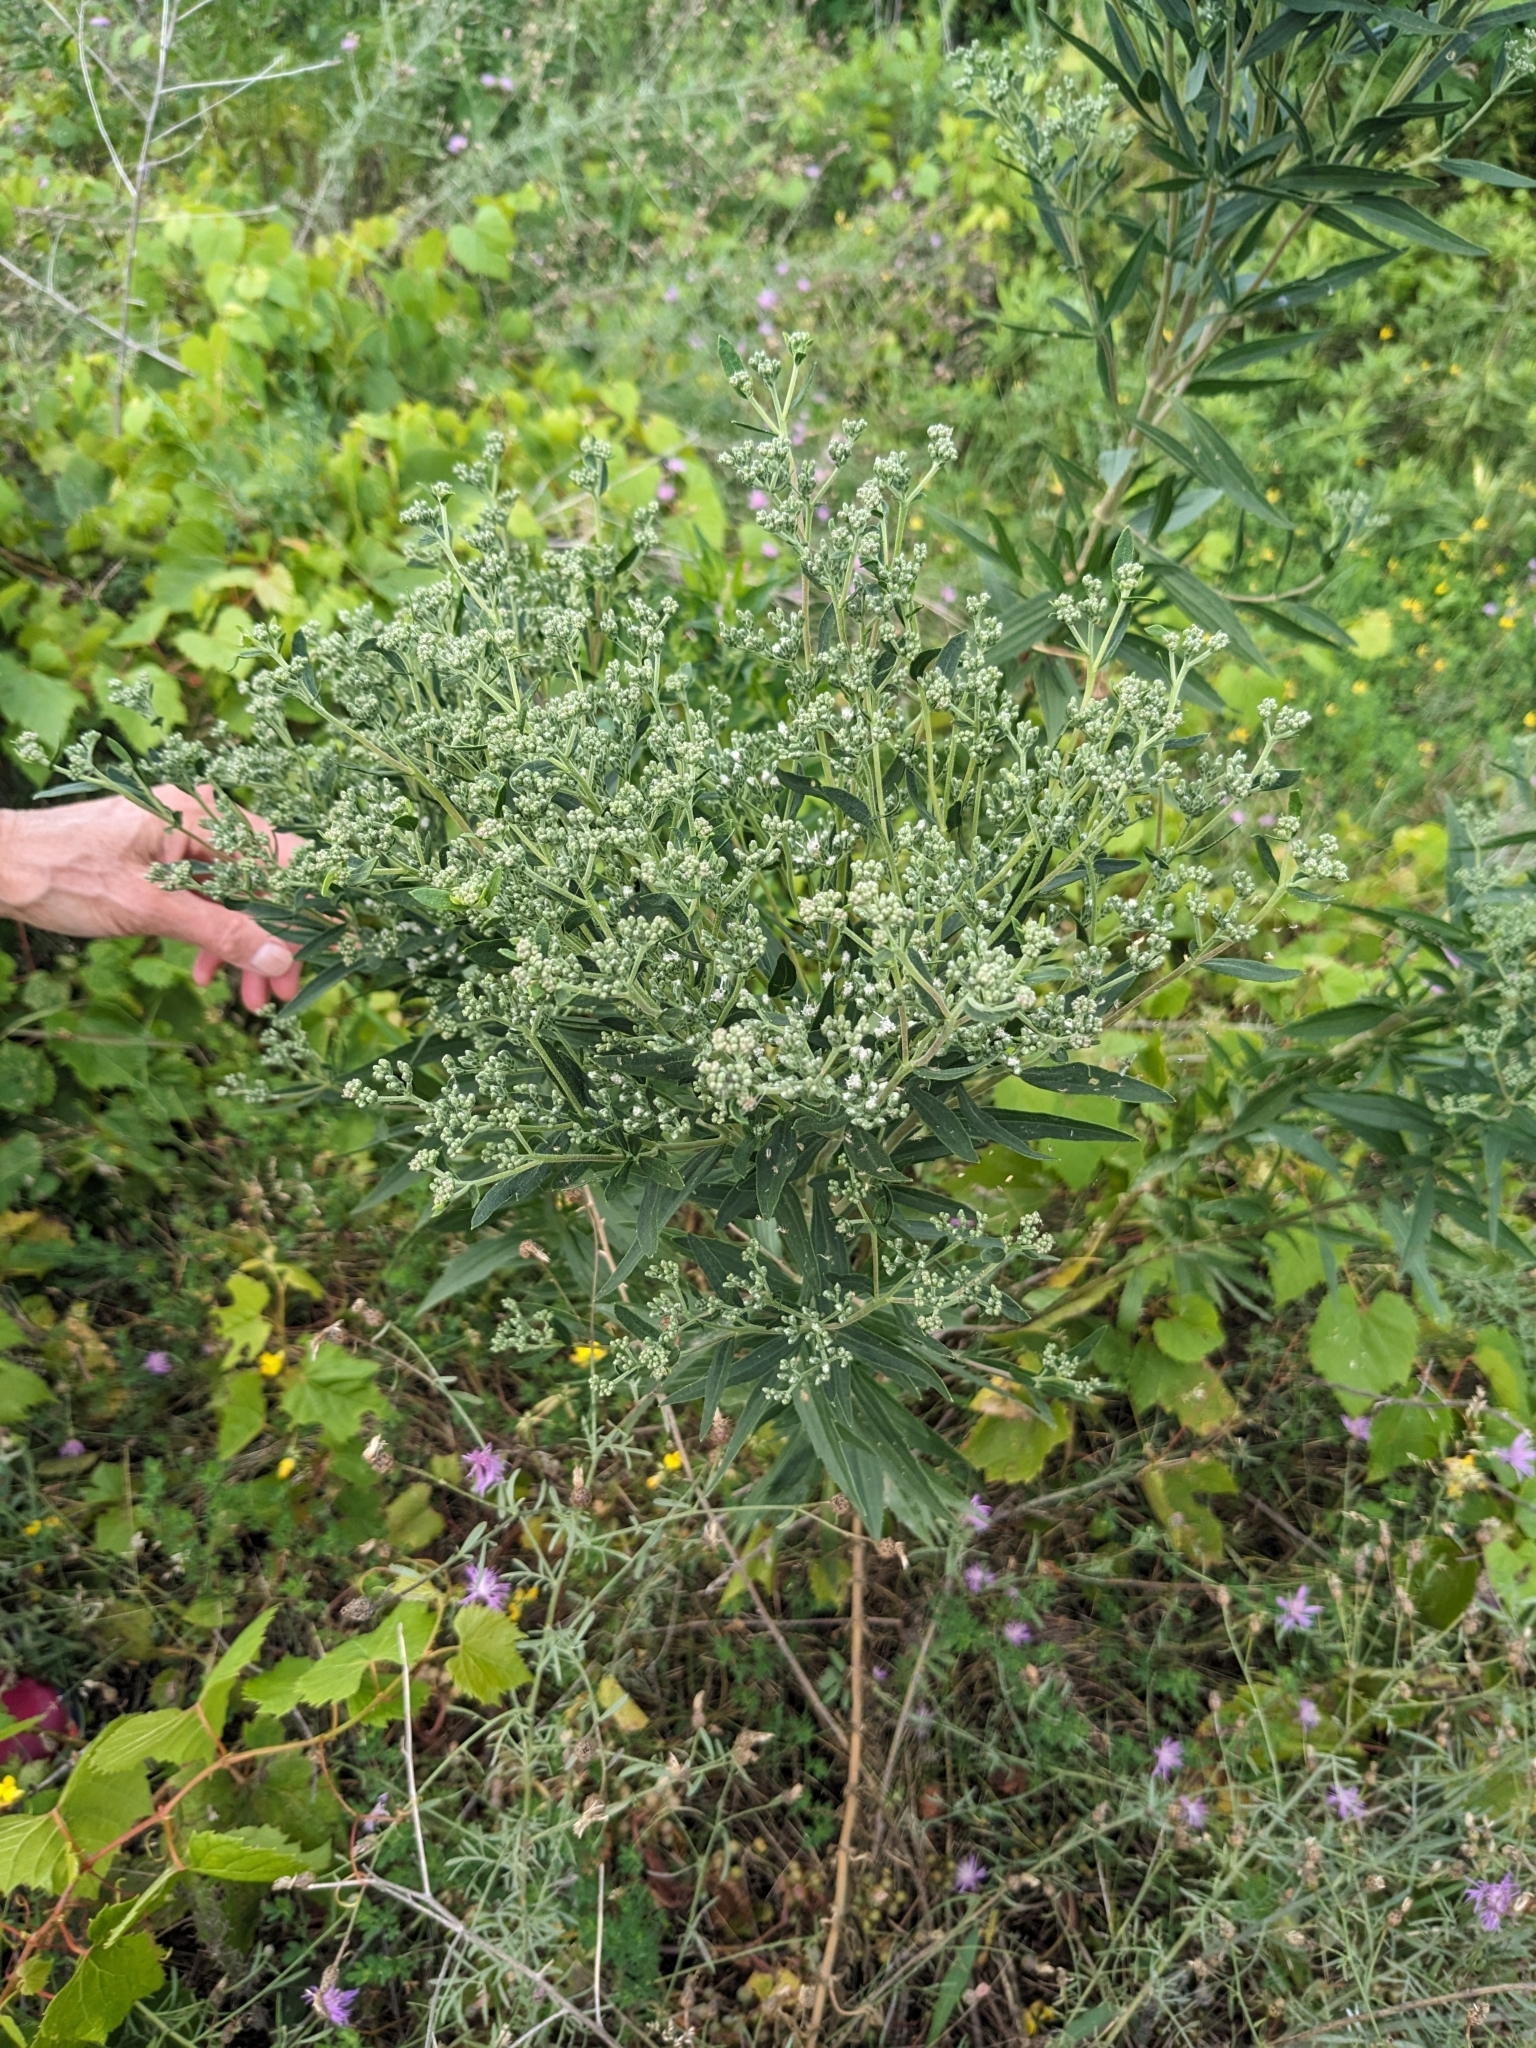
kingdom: Plantae
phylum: Tracheophyta
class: Magnoliopsida
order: Asterales
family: Asteraceae
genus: Eupatorium
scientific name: Eupatorium altissimum
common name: Tall thoroughwort
